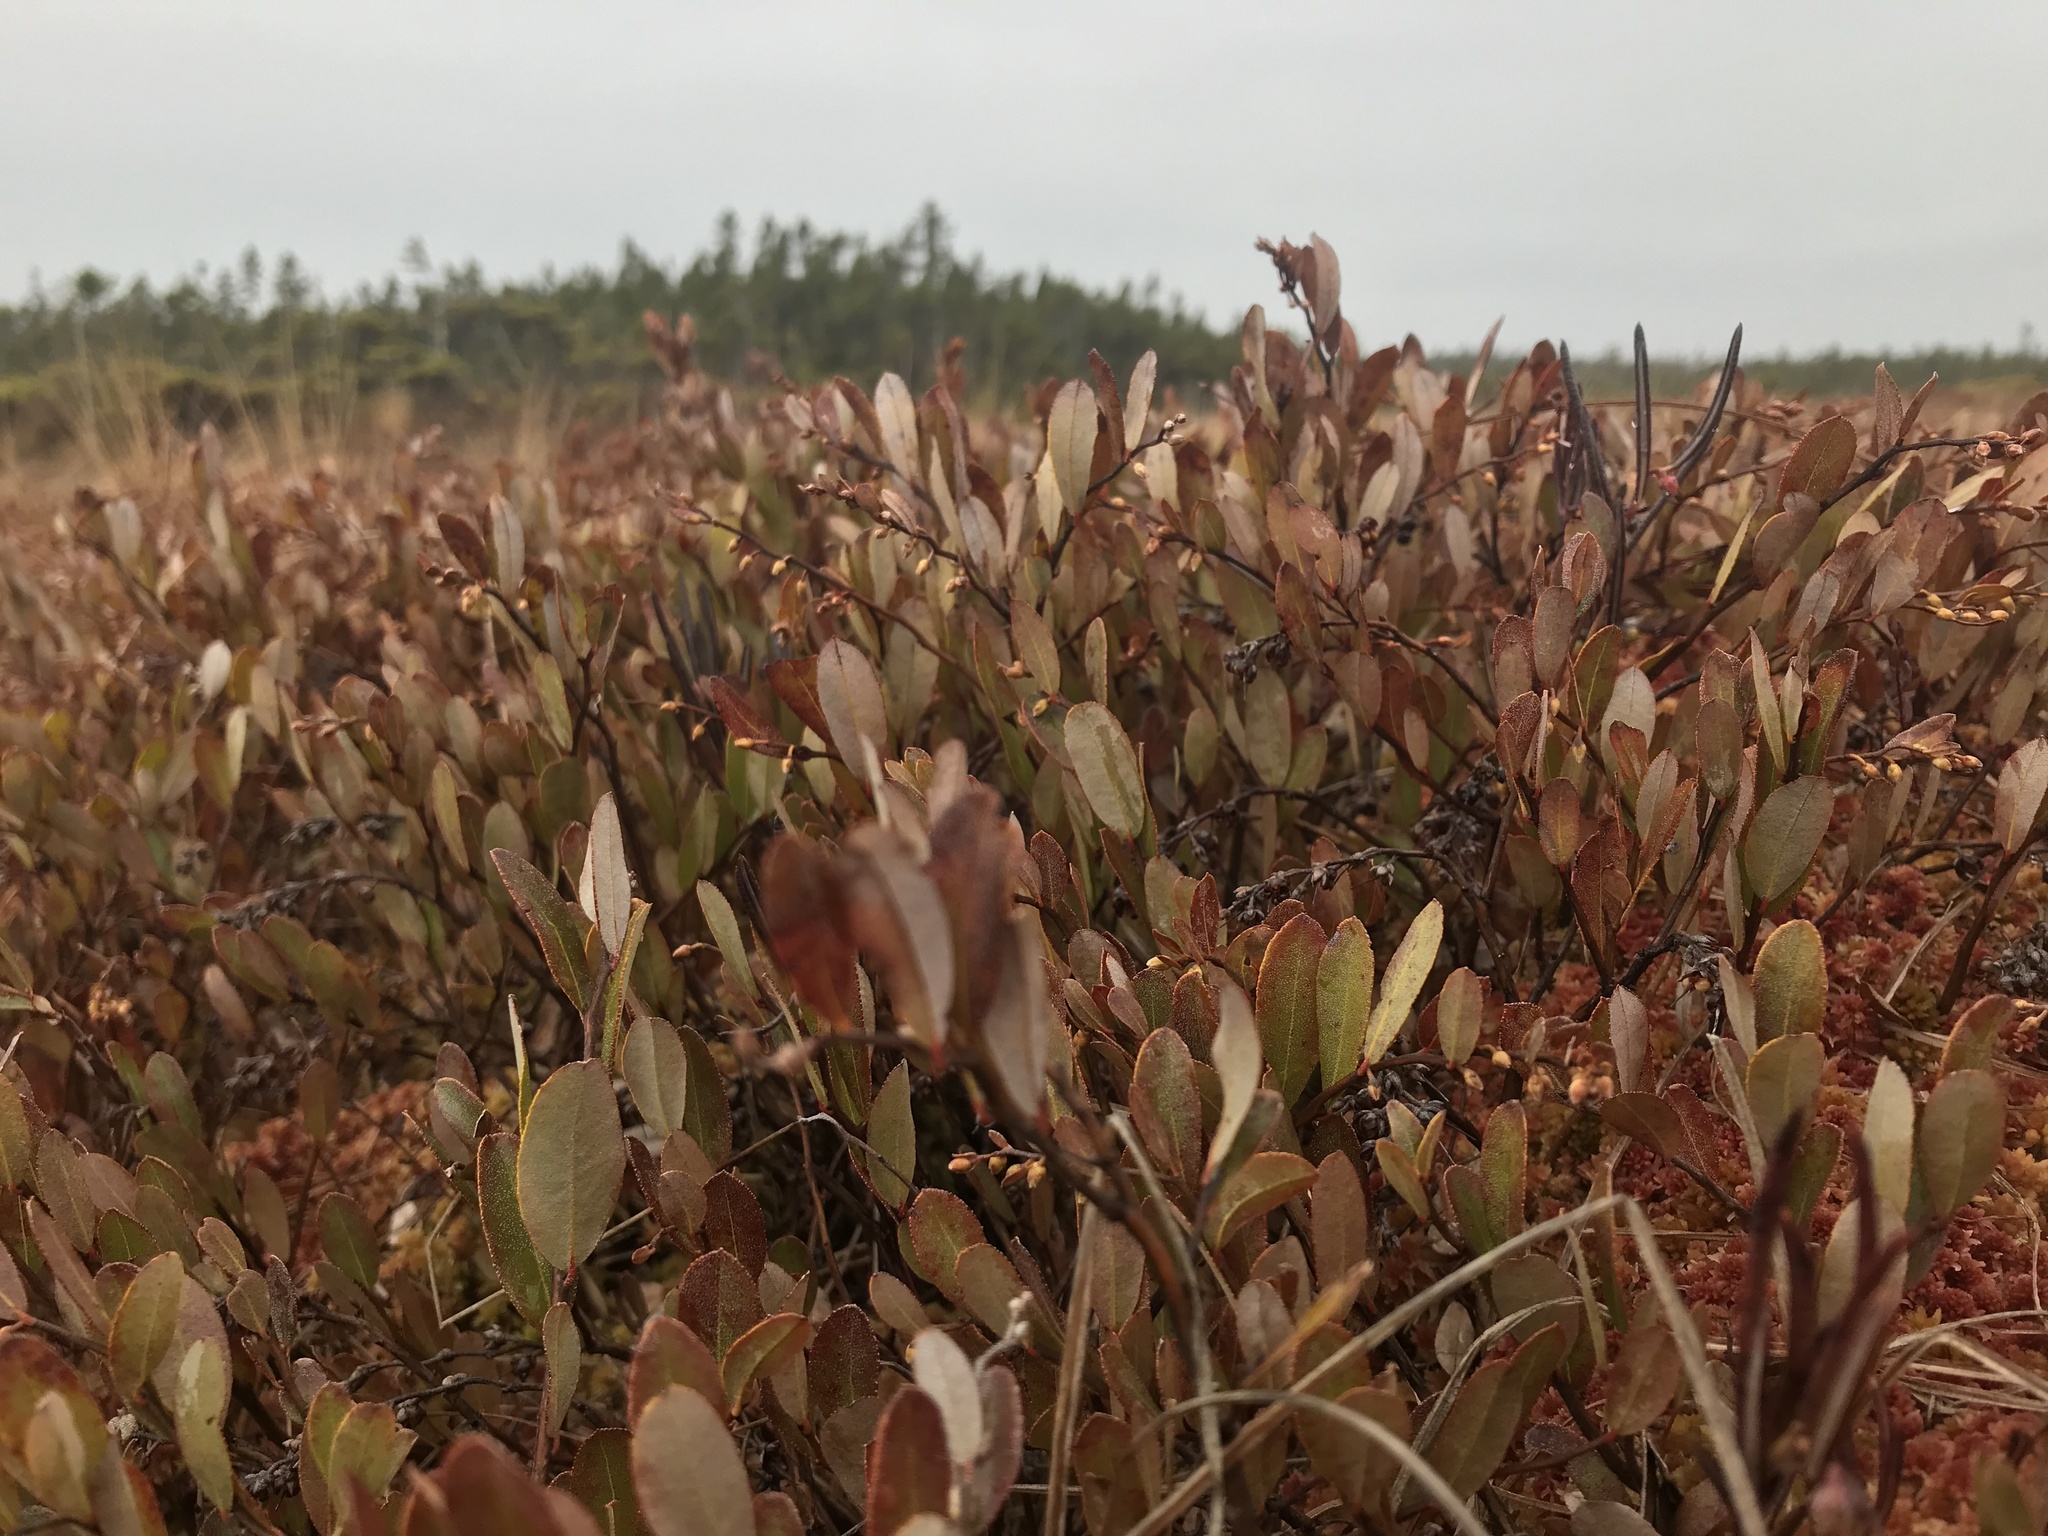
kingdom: Plantae
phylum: Tracheophyta
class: Magnoliopsida
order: Ericales
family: Ericaceae
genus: Chamaedaphne
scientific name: Chamaedaphne calyculata
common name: Leatherleaf
